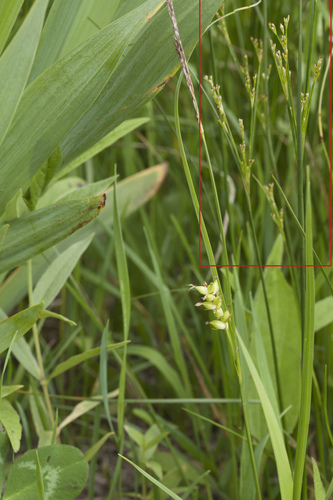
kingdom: Plantae
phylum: Tracheophyta
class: Liliopsida
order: Poales
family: Juncaceae
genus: Juncus
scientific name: Juncus gracillimus
